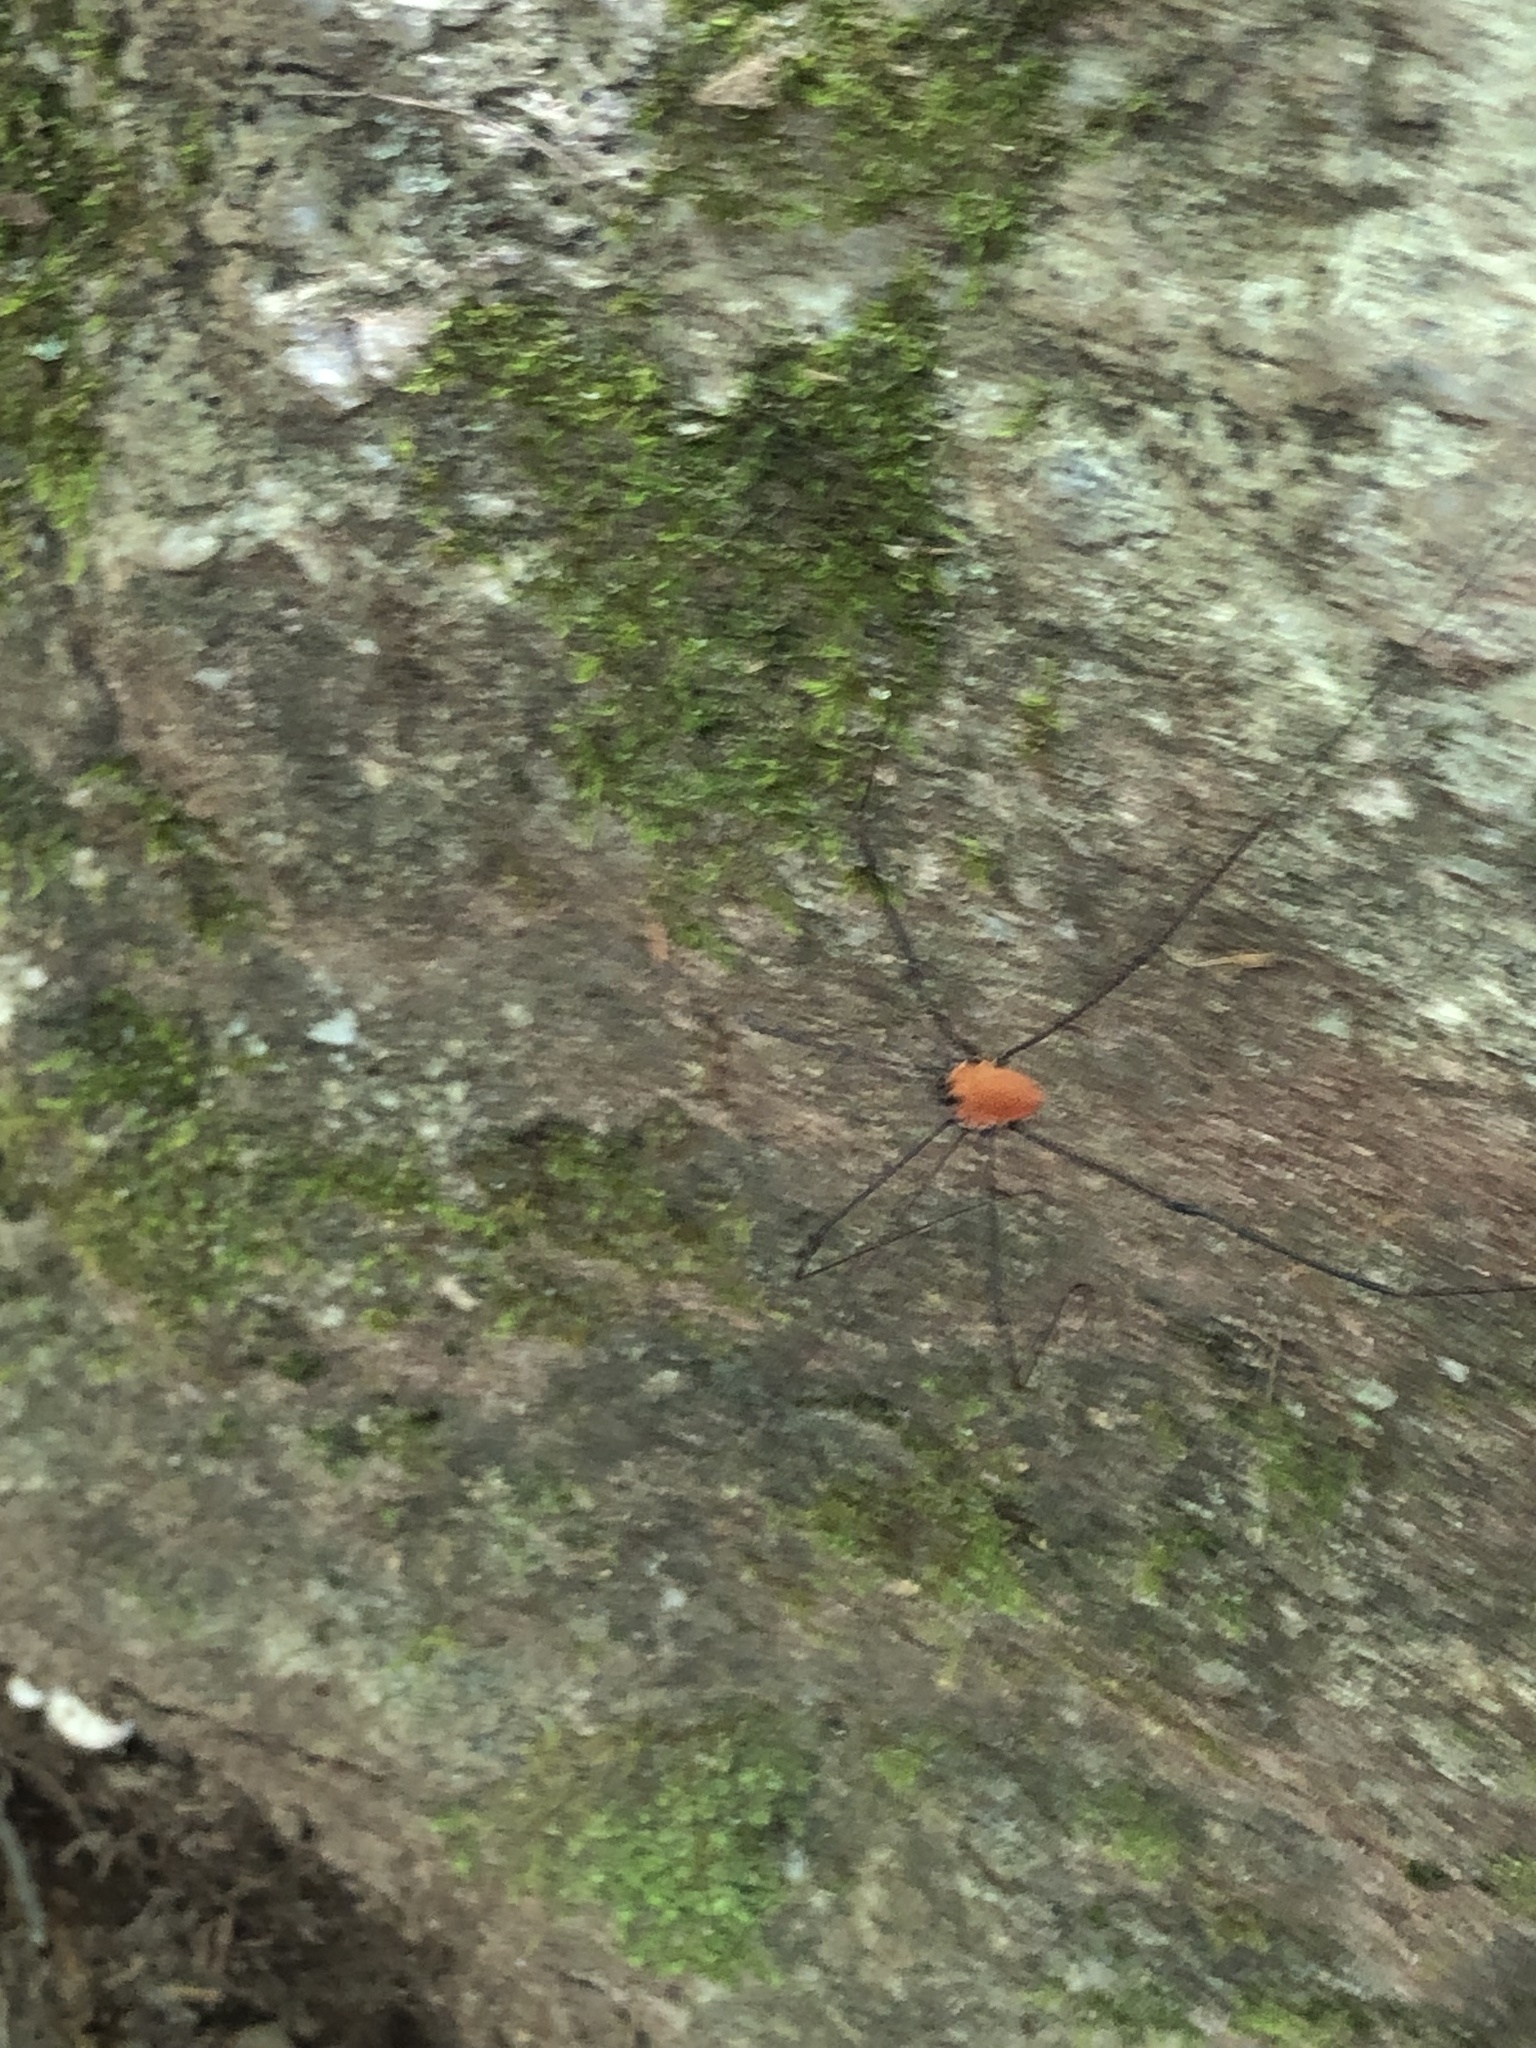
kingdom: Animalia
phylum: Arthropoda
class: Arachnida
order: Opiliones
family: Sclerosomatidae
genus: Leiobunum
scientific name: Leiobunum nigropalpi
